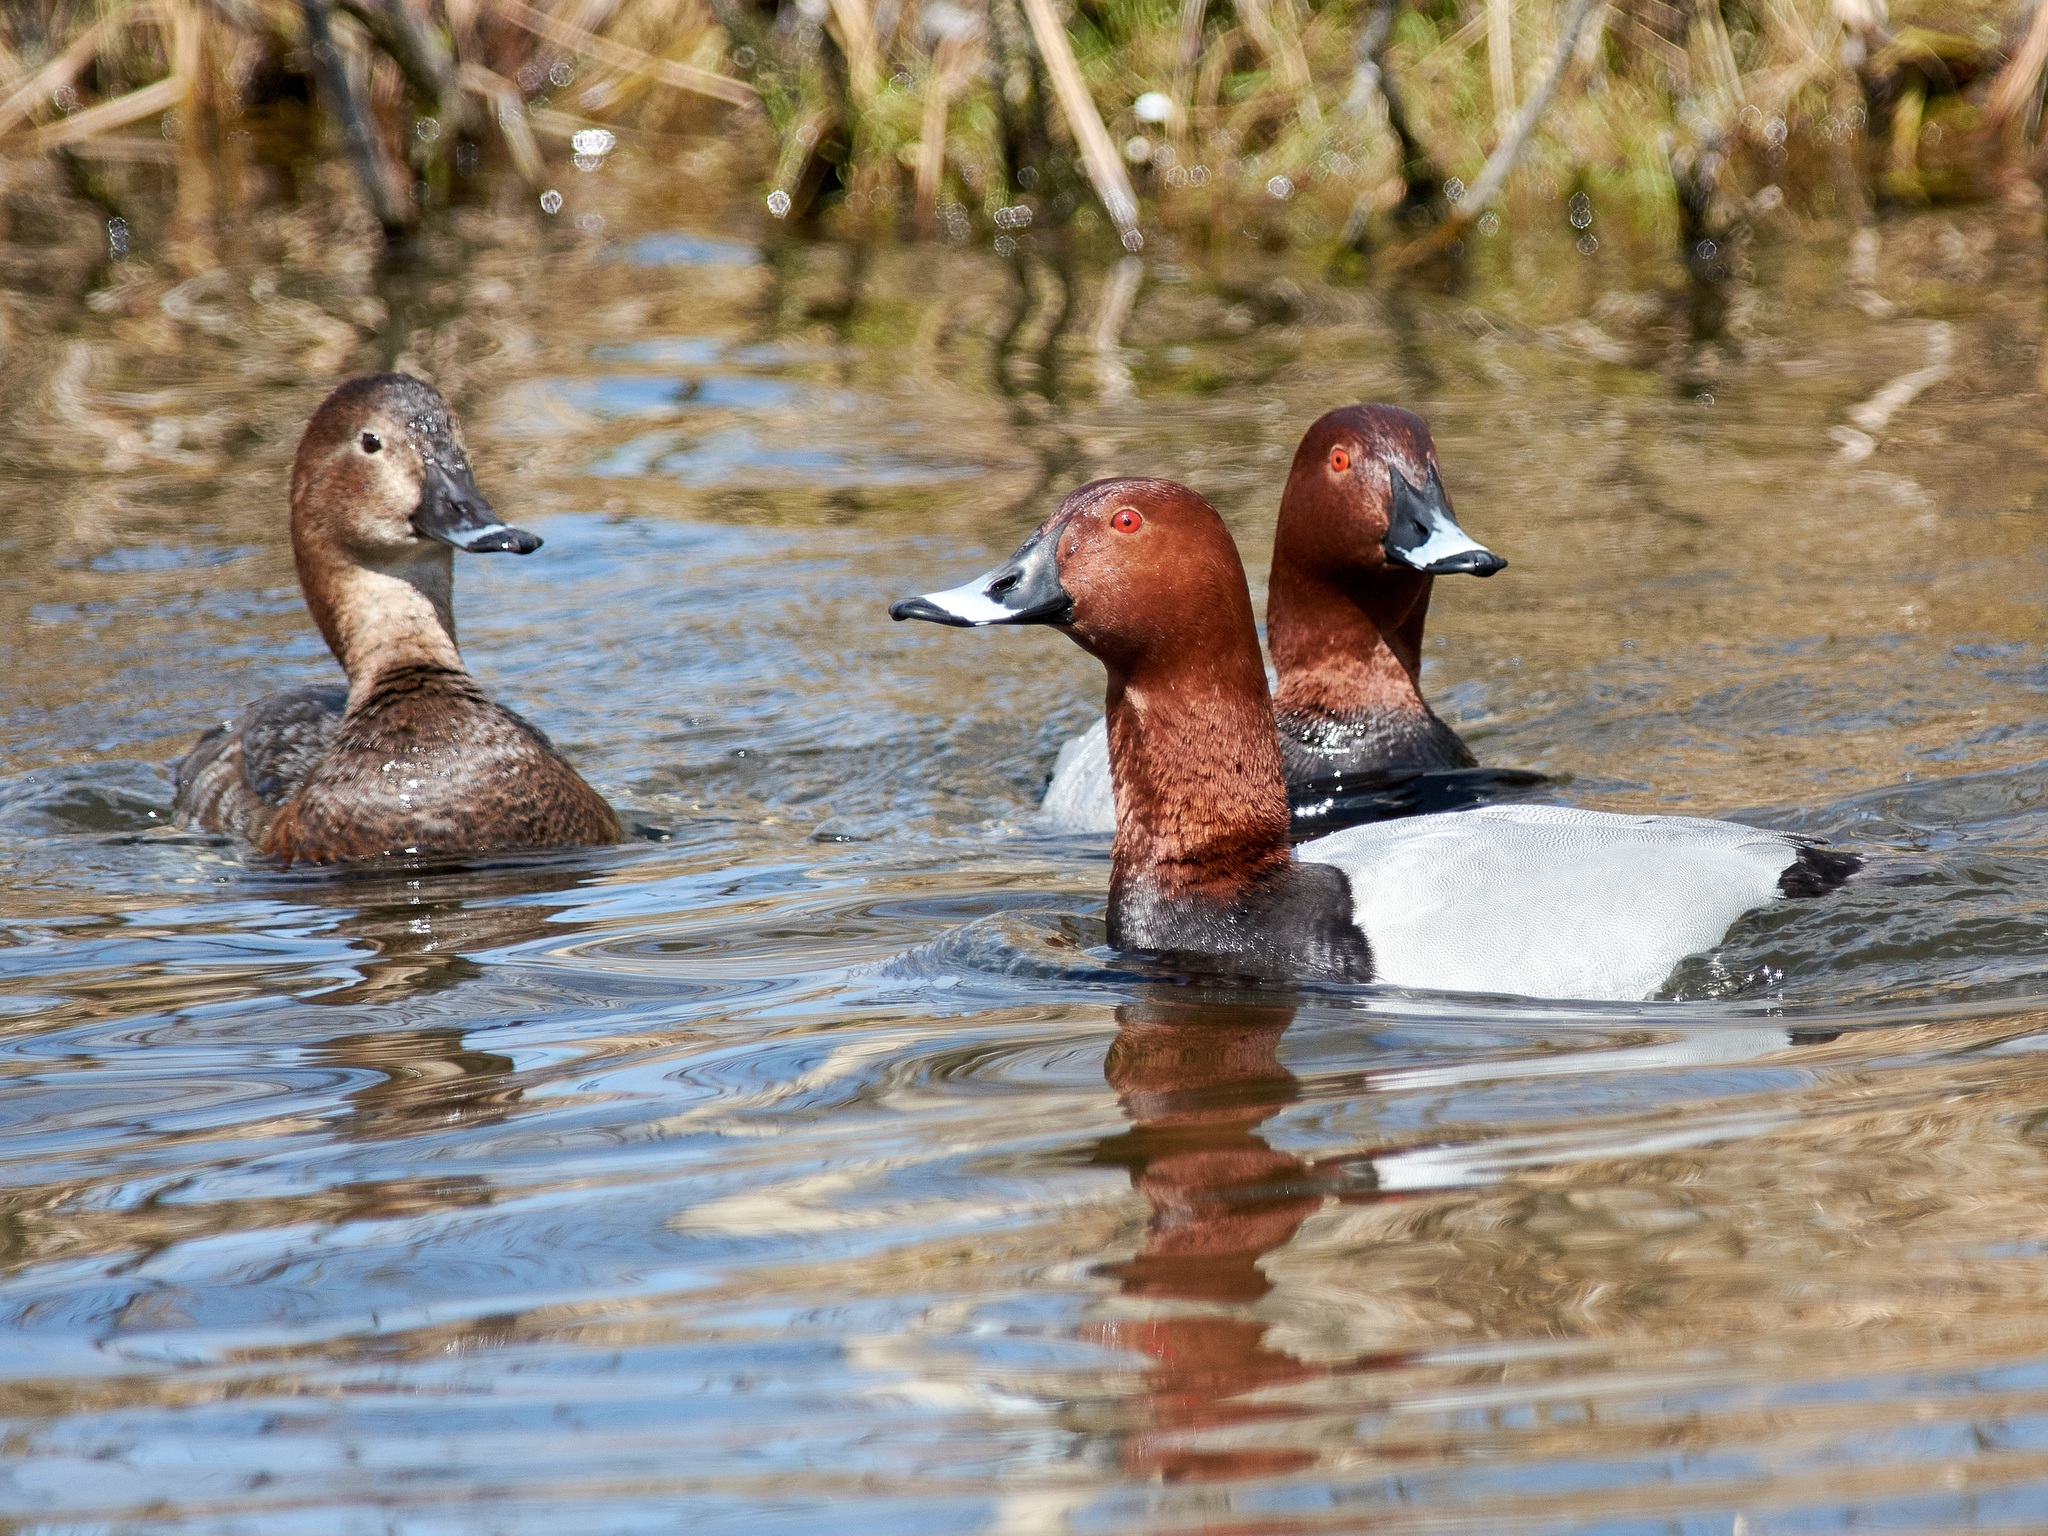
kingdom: Animalia
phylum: Chordata
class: Aves
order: Anseriformes
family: Anatidae
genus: Aythya
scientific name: Aythya ferina
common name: Common pochard
